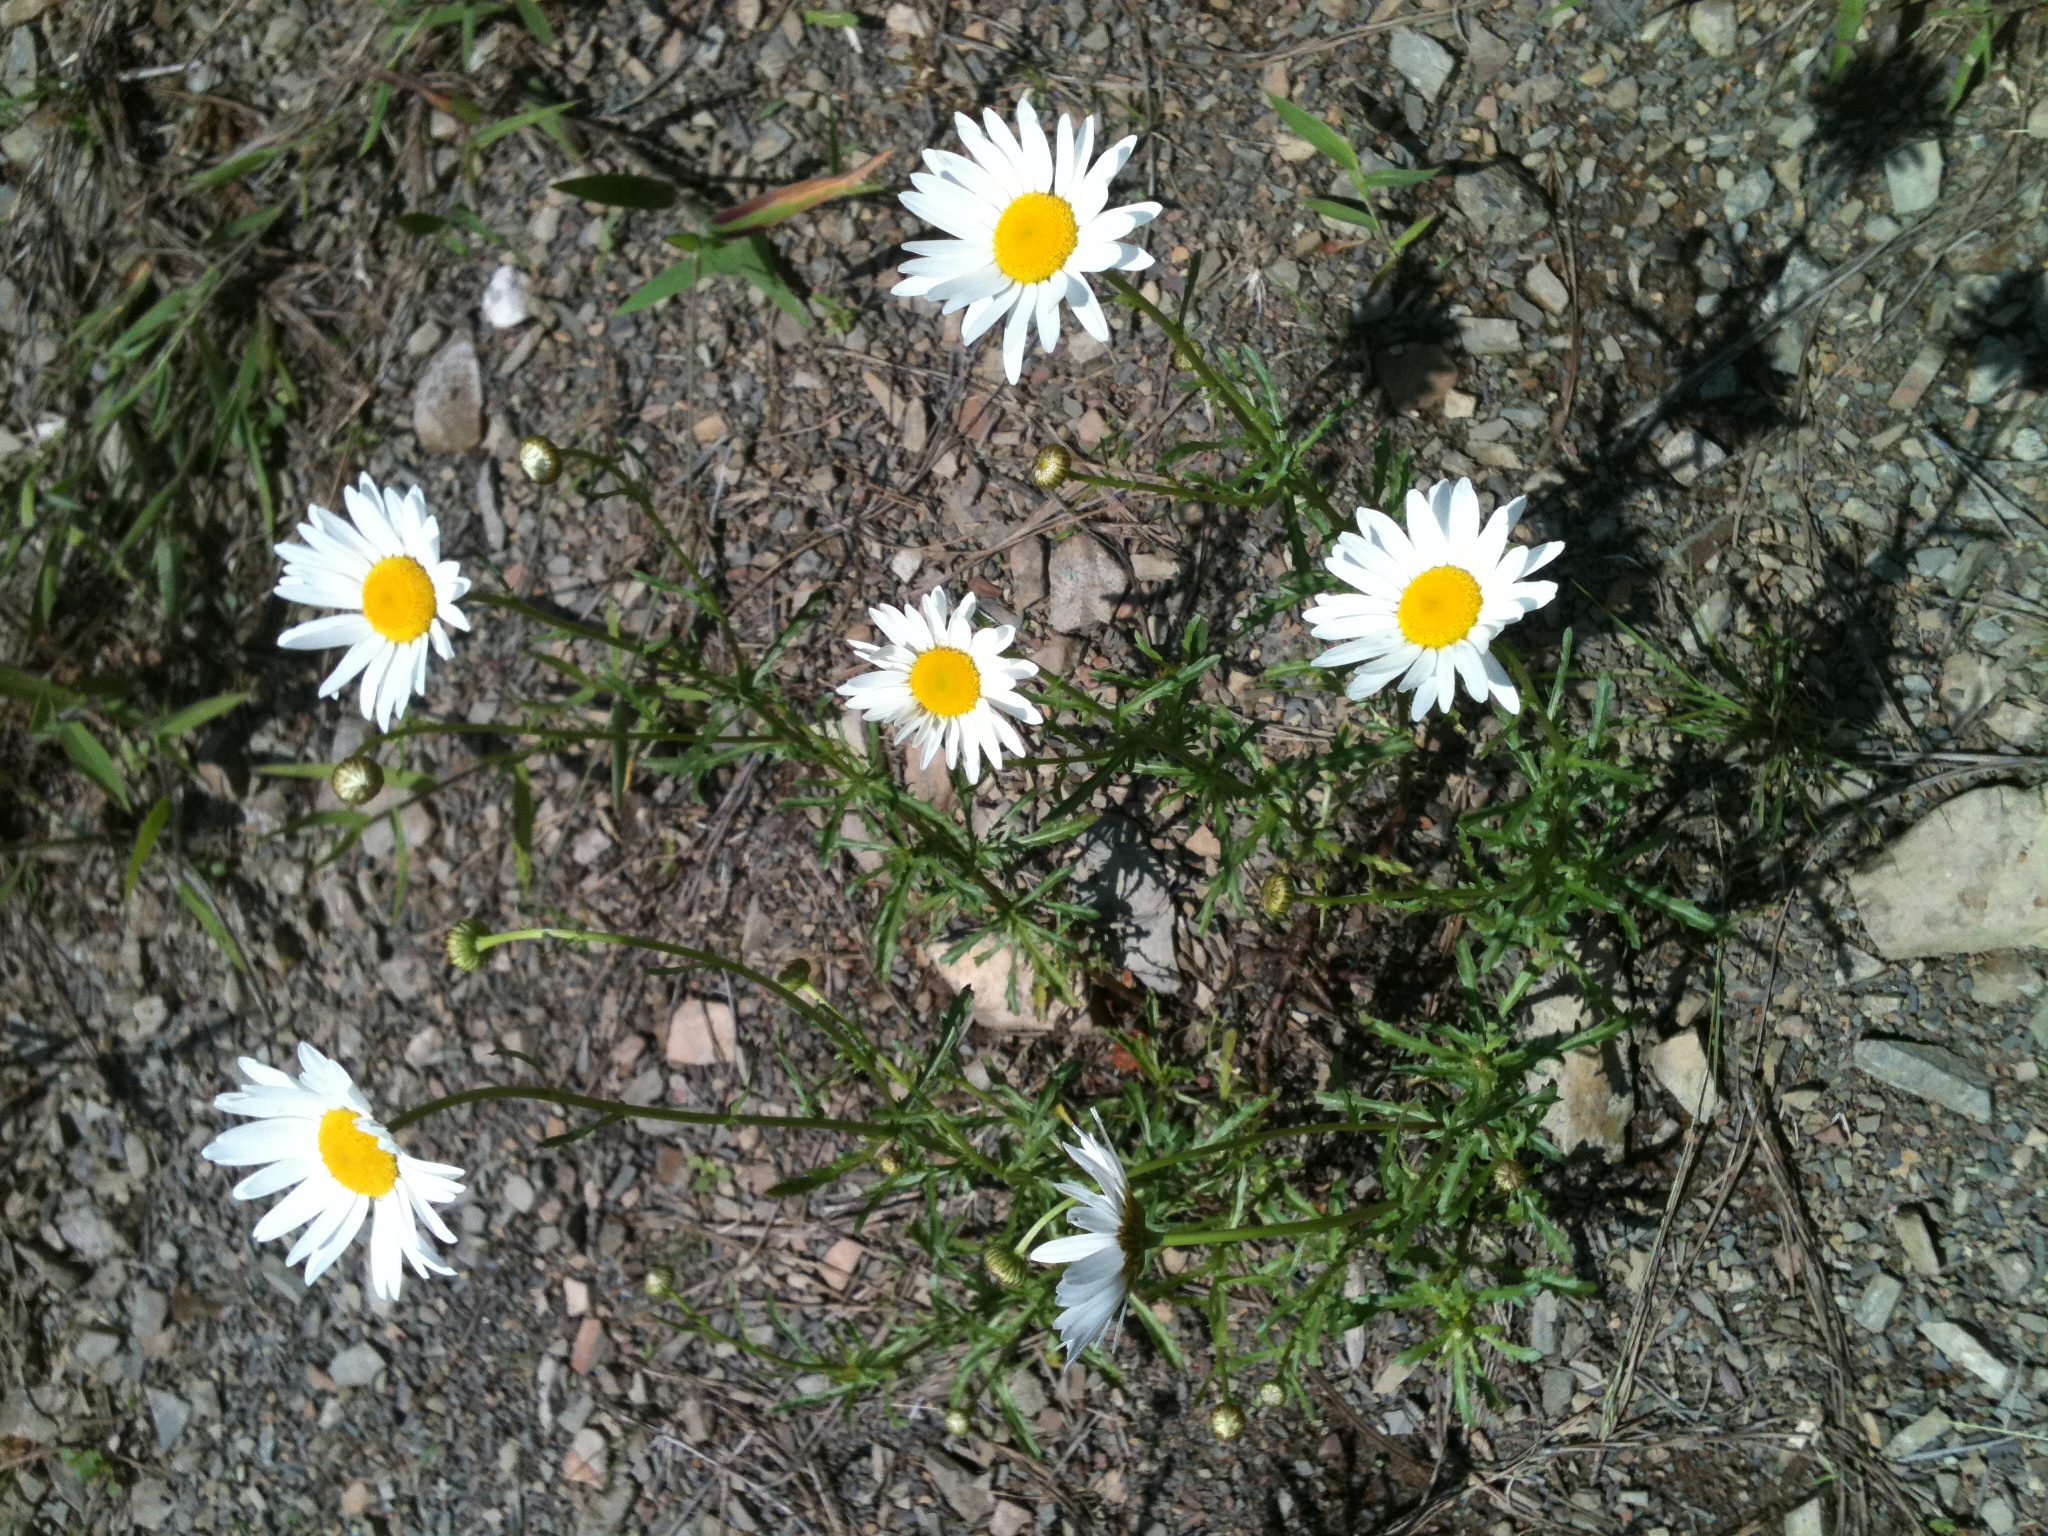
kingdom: Plantae
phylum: Tracheophyta
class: Magnoliopsida
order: Asterales
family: Asteraceae
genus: Leucanthemum
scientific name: Leucanthemum vulgare
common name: Oxeye daisy
